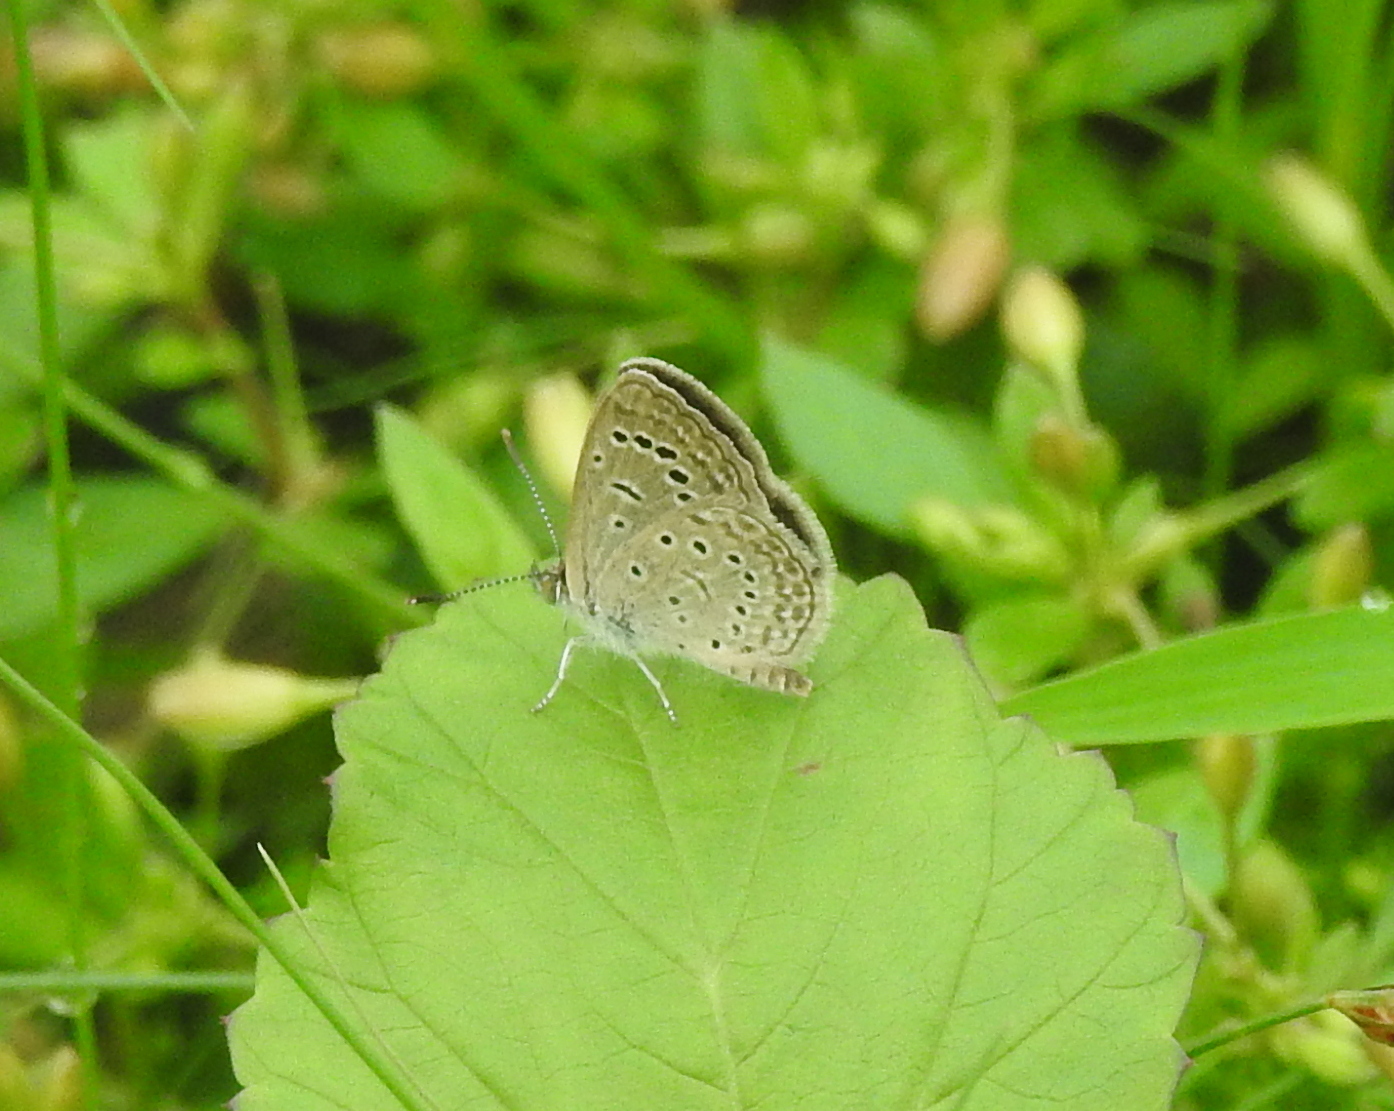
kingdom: Animalia
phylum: Arthropoda
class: Insecta
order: Lepidoptera
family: Lycaenidae
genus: Zizeeria
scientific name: Zizeeria karsandra
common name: Dark grass blue
